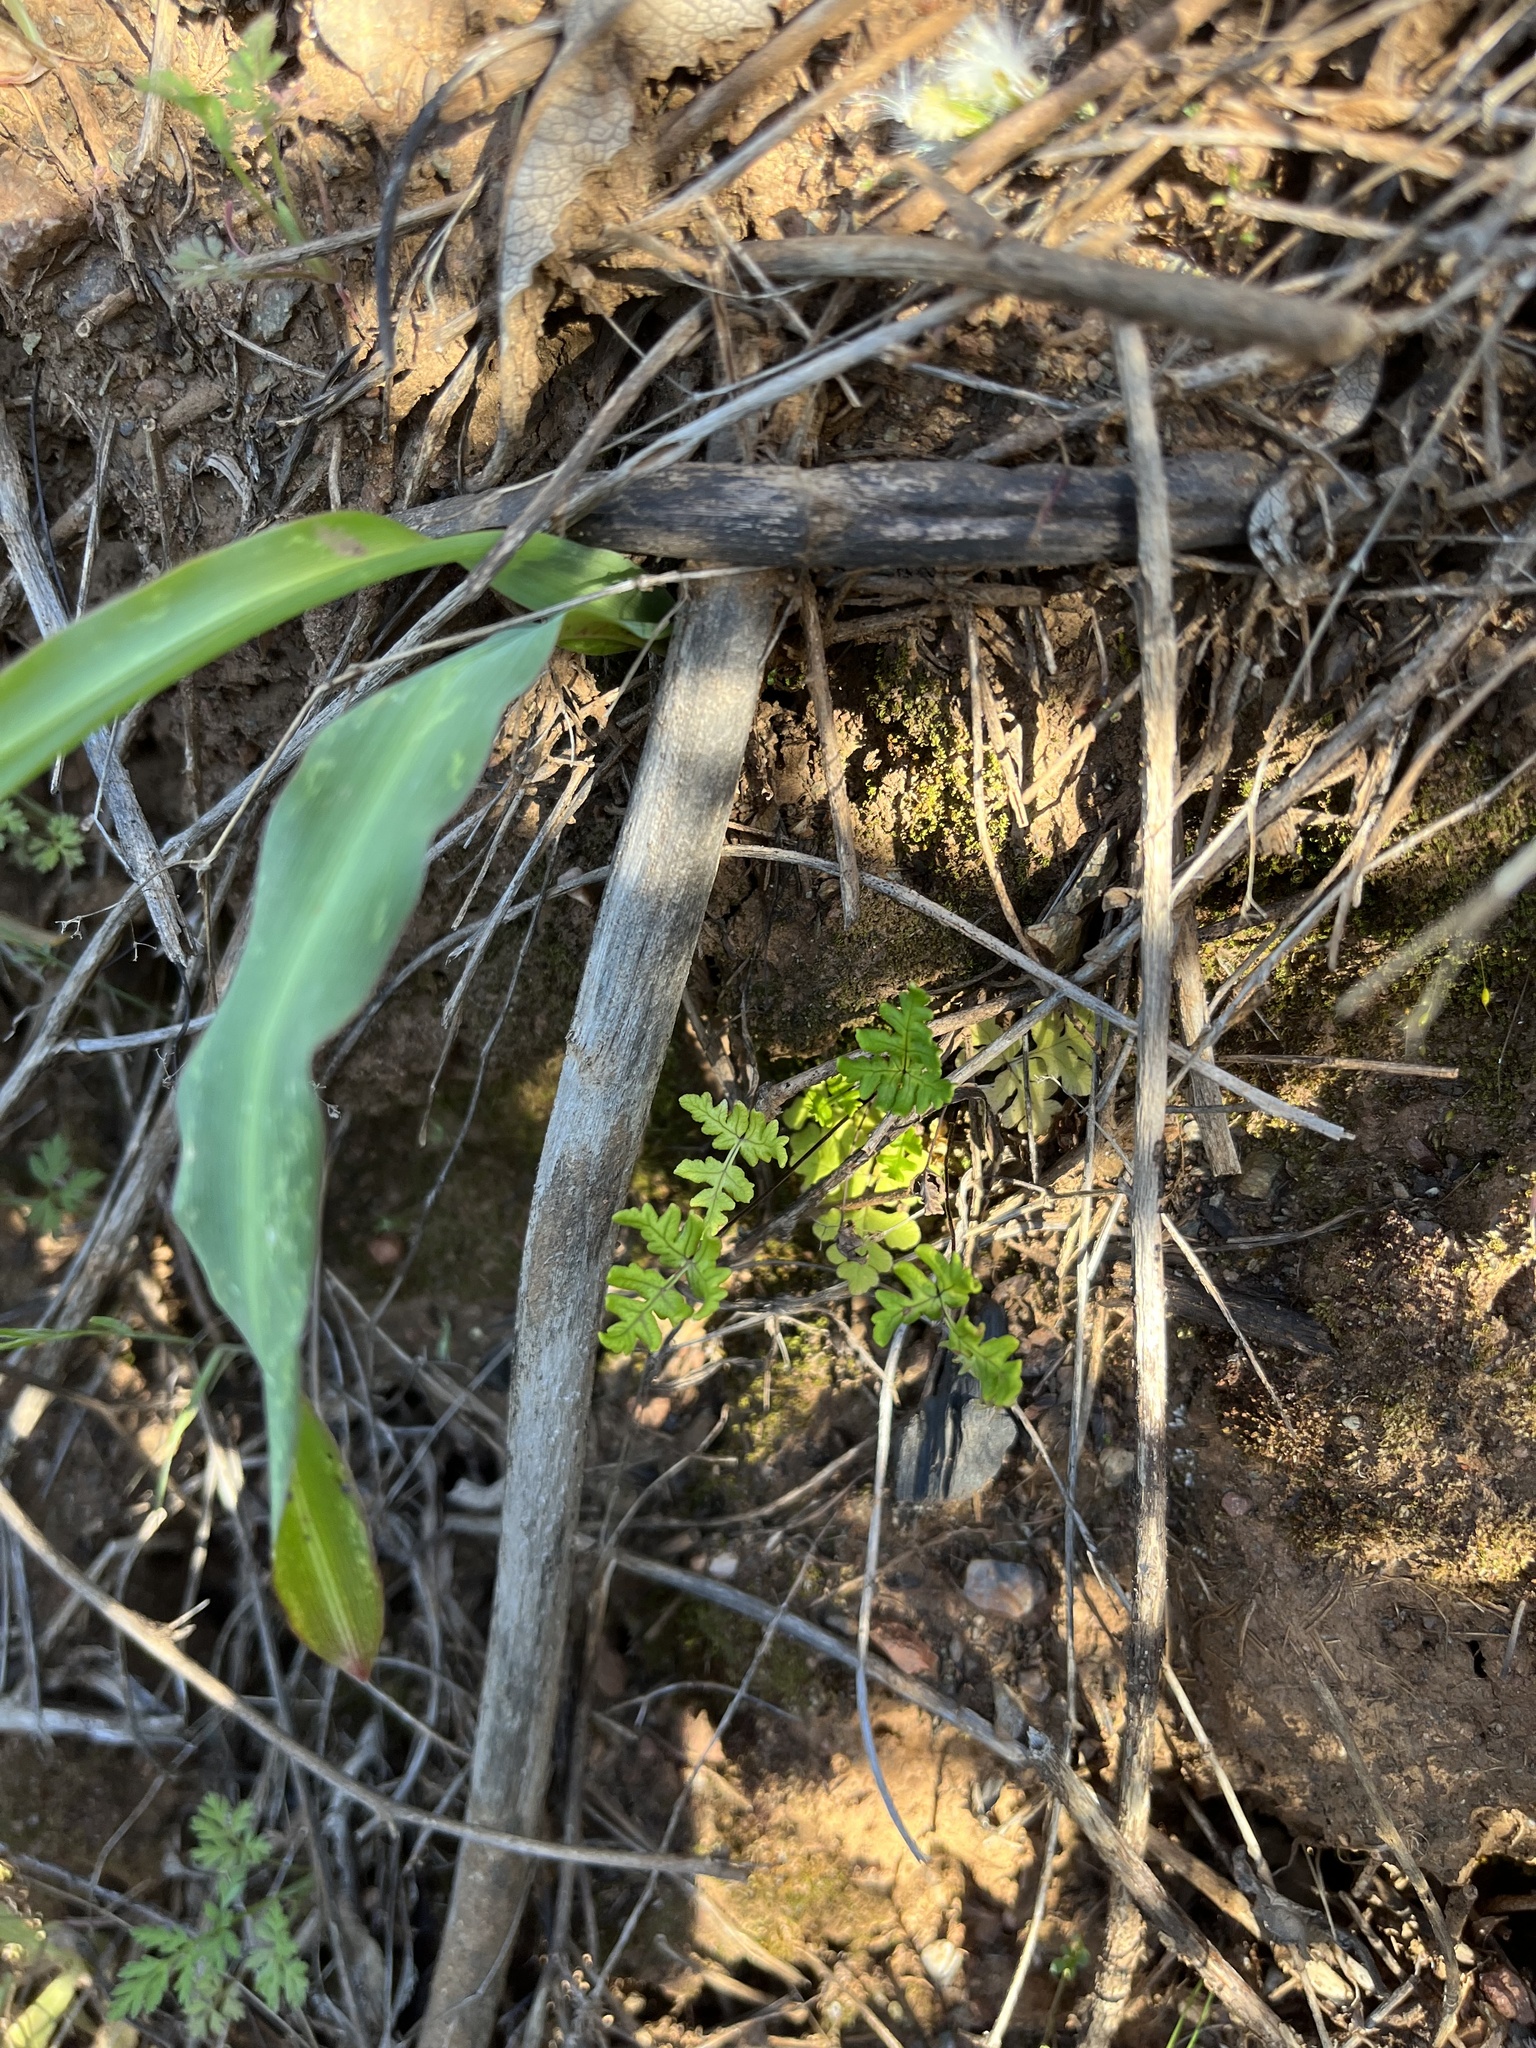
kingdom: Plantae
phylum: Tracheophyta
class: Polypodiopsida
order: Polypodiales
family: Pteridaceae
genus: Pentagramma
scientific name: Pentagramma triangularis
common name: Gold fern
